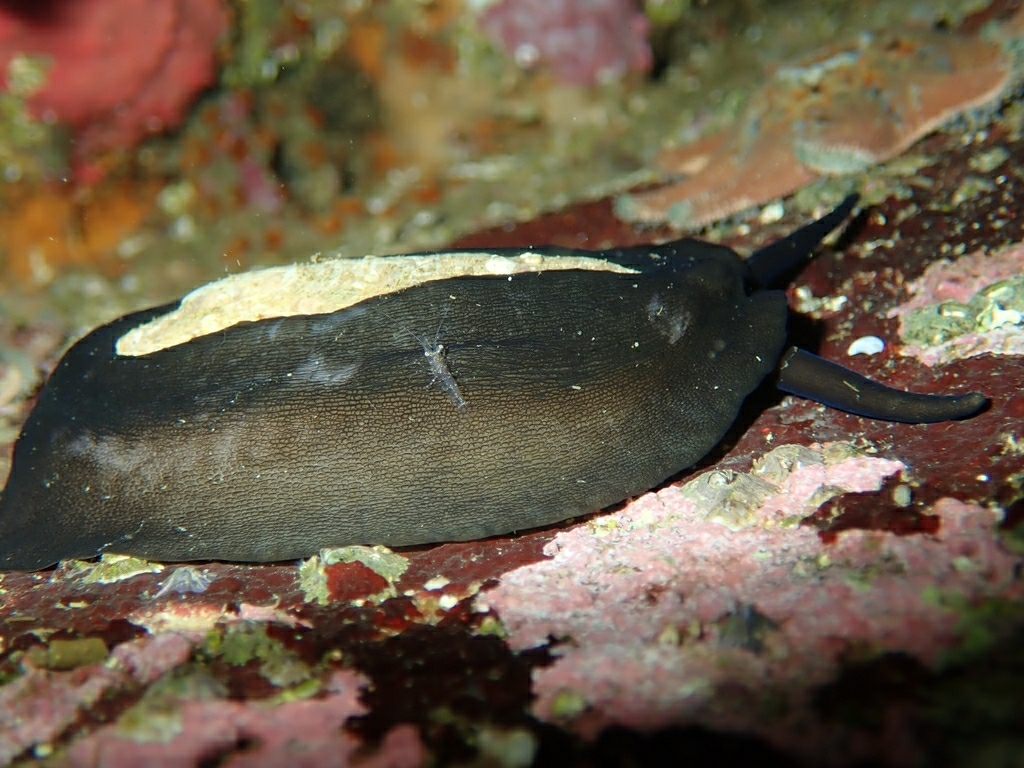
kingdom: Animalia
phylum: Mollusca
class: Gastropoda
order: Lepetellida
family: Fissurellidae
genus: Scutus
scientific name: Scutus antipodes
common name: Duckbill shell
